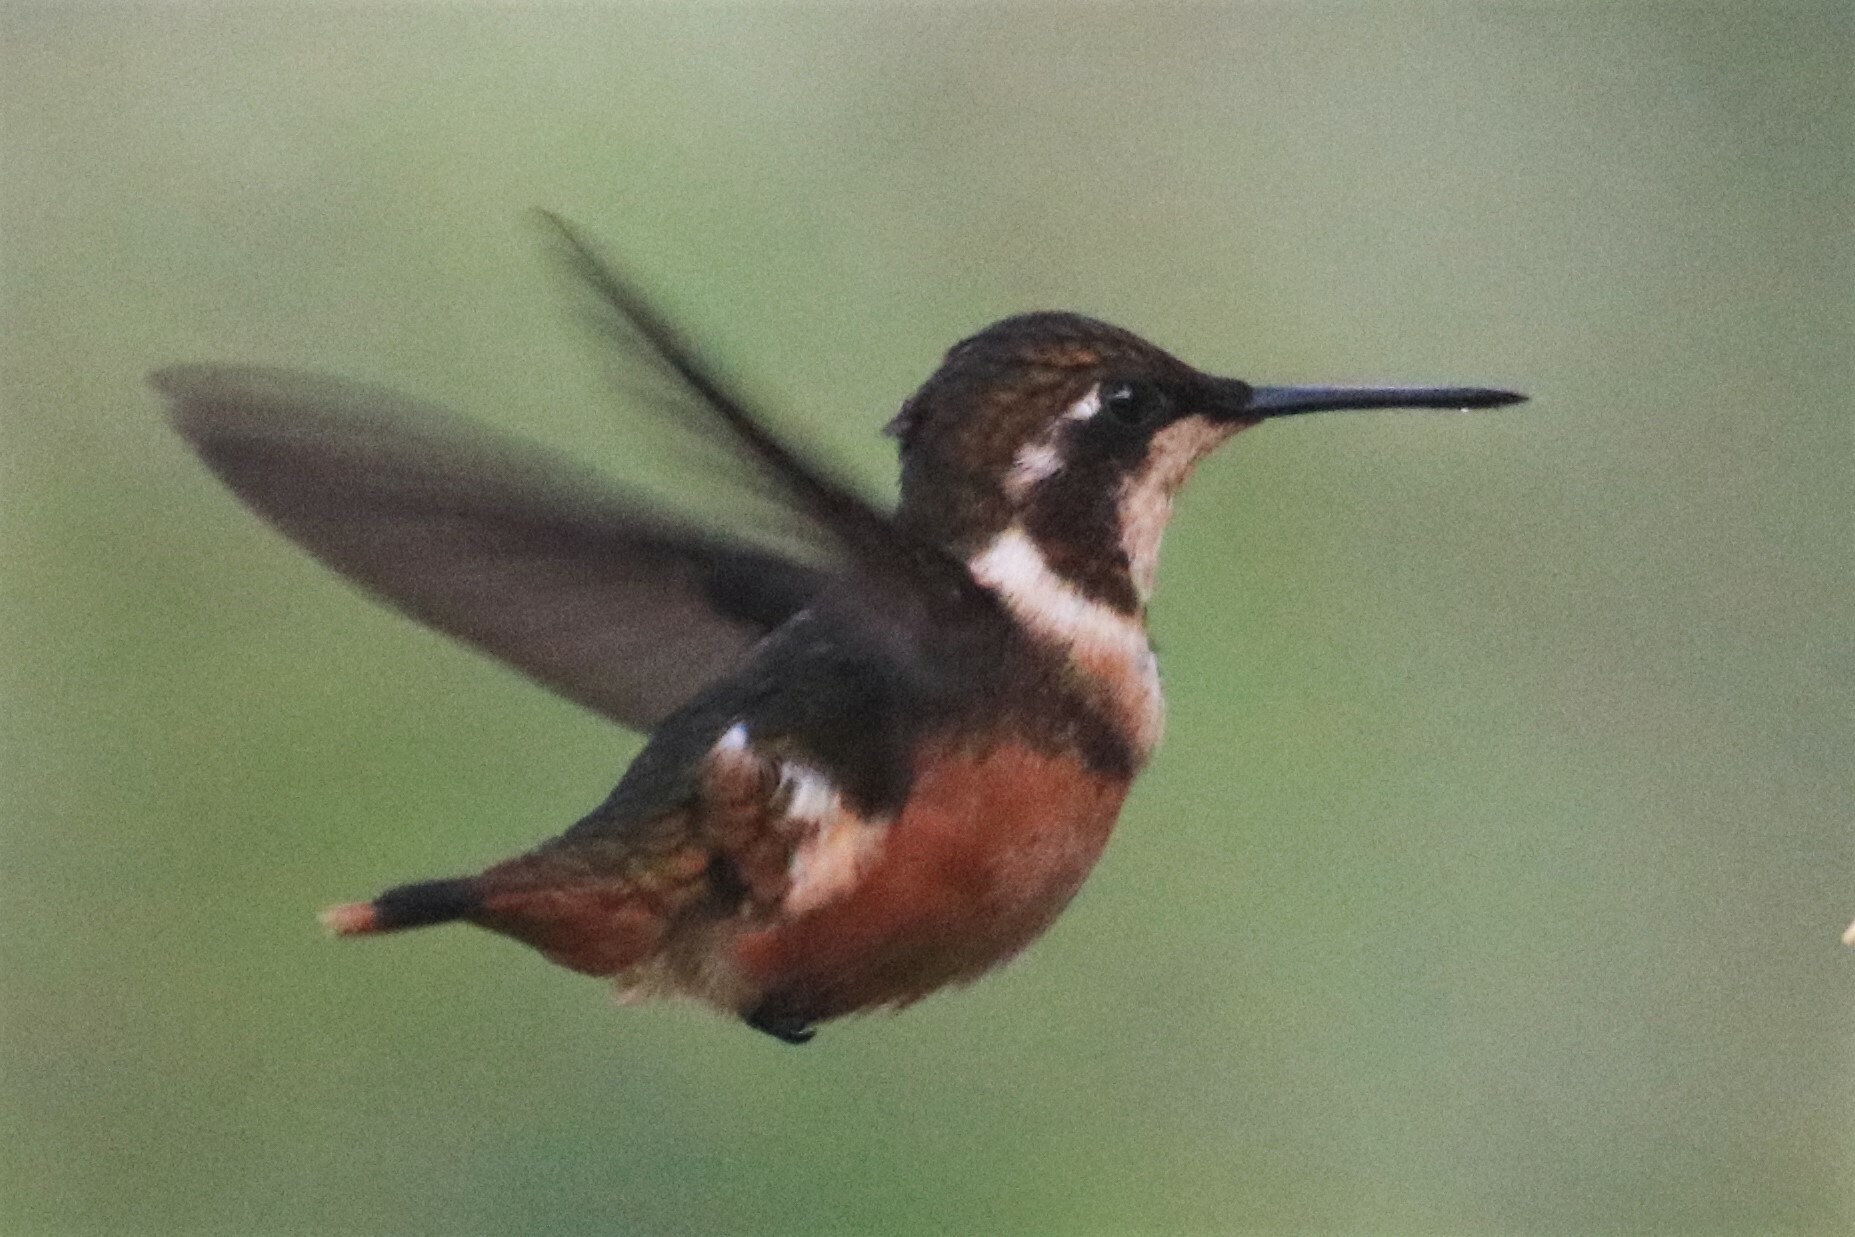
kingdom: Animalia
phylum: Chordata
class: Aves
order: Apodiformes
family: Trochilidae
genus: Calliphlox
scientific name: Calliphlox mitchellii
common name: Purple-throated woodstar
